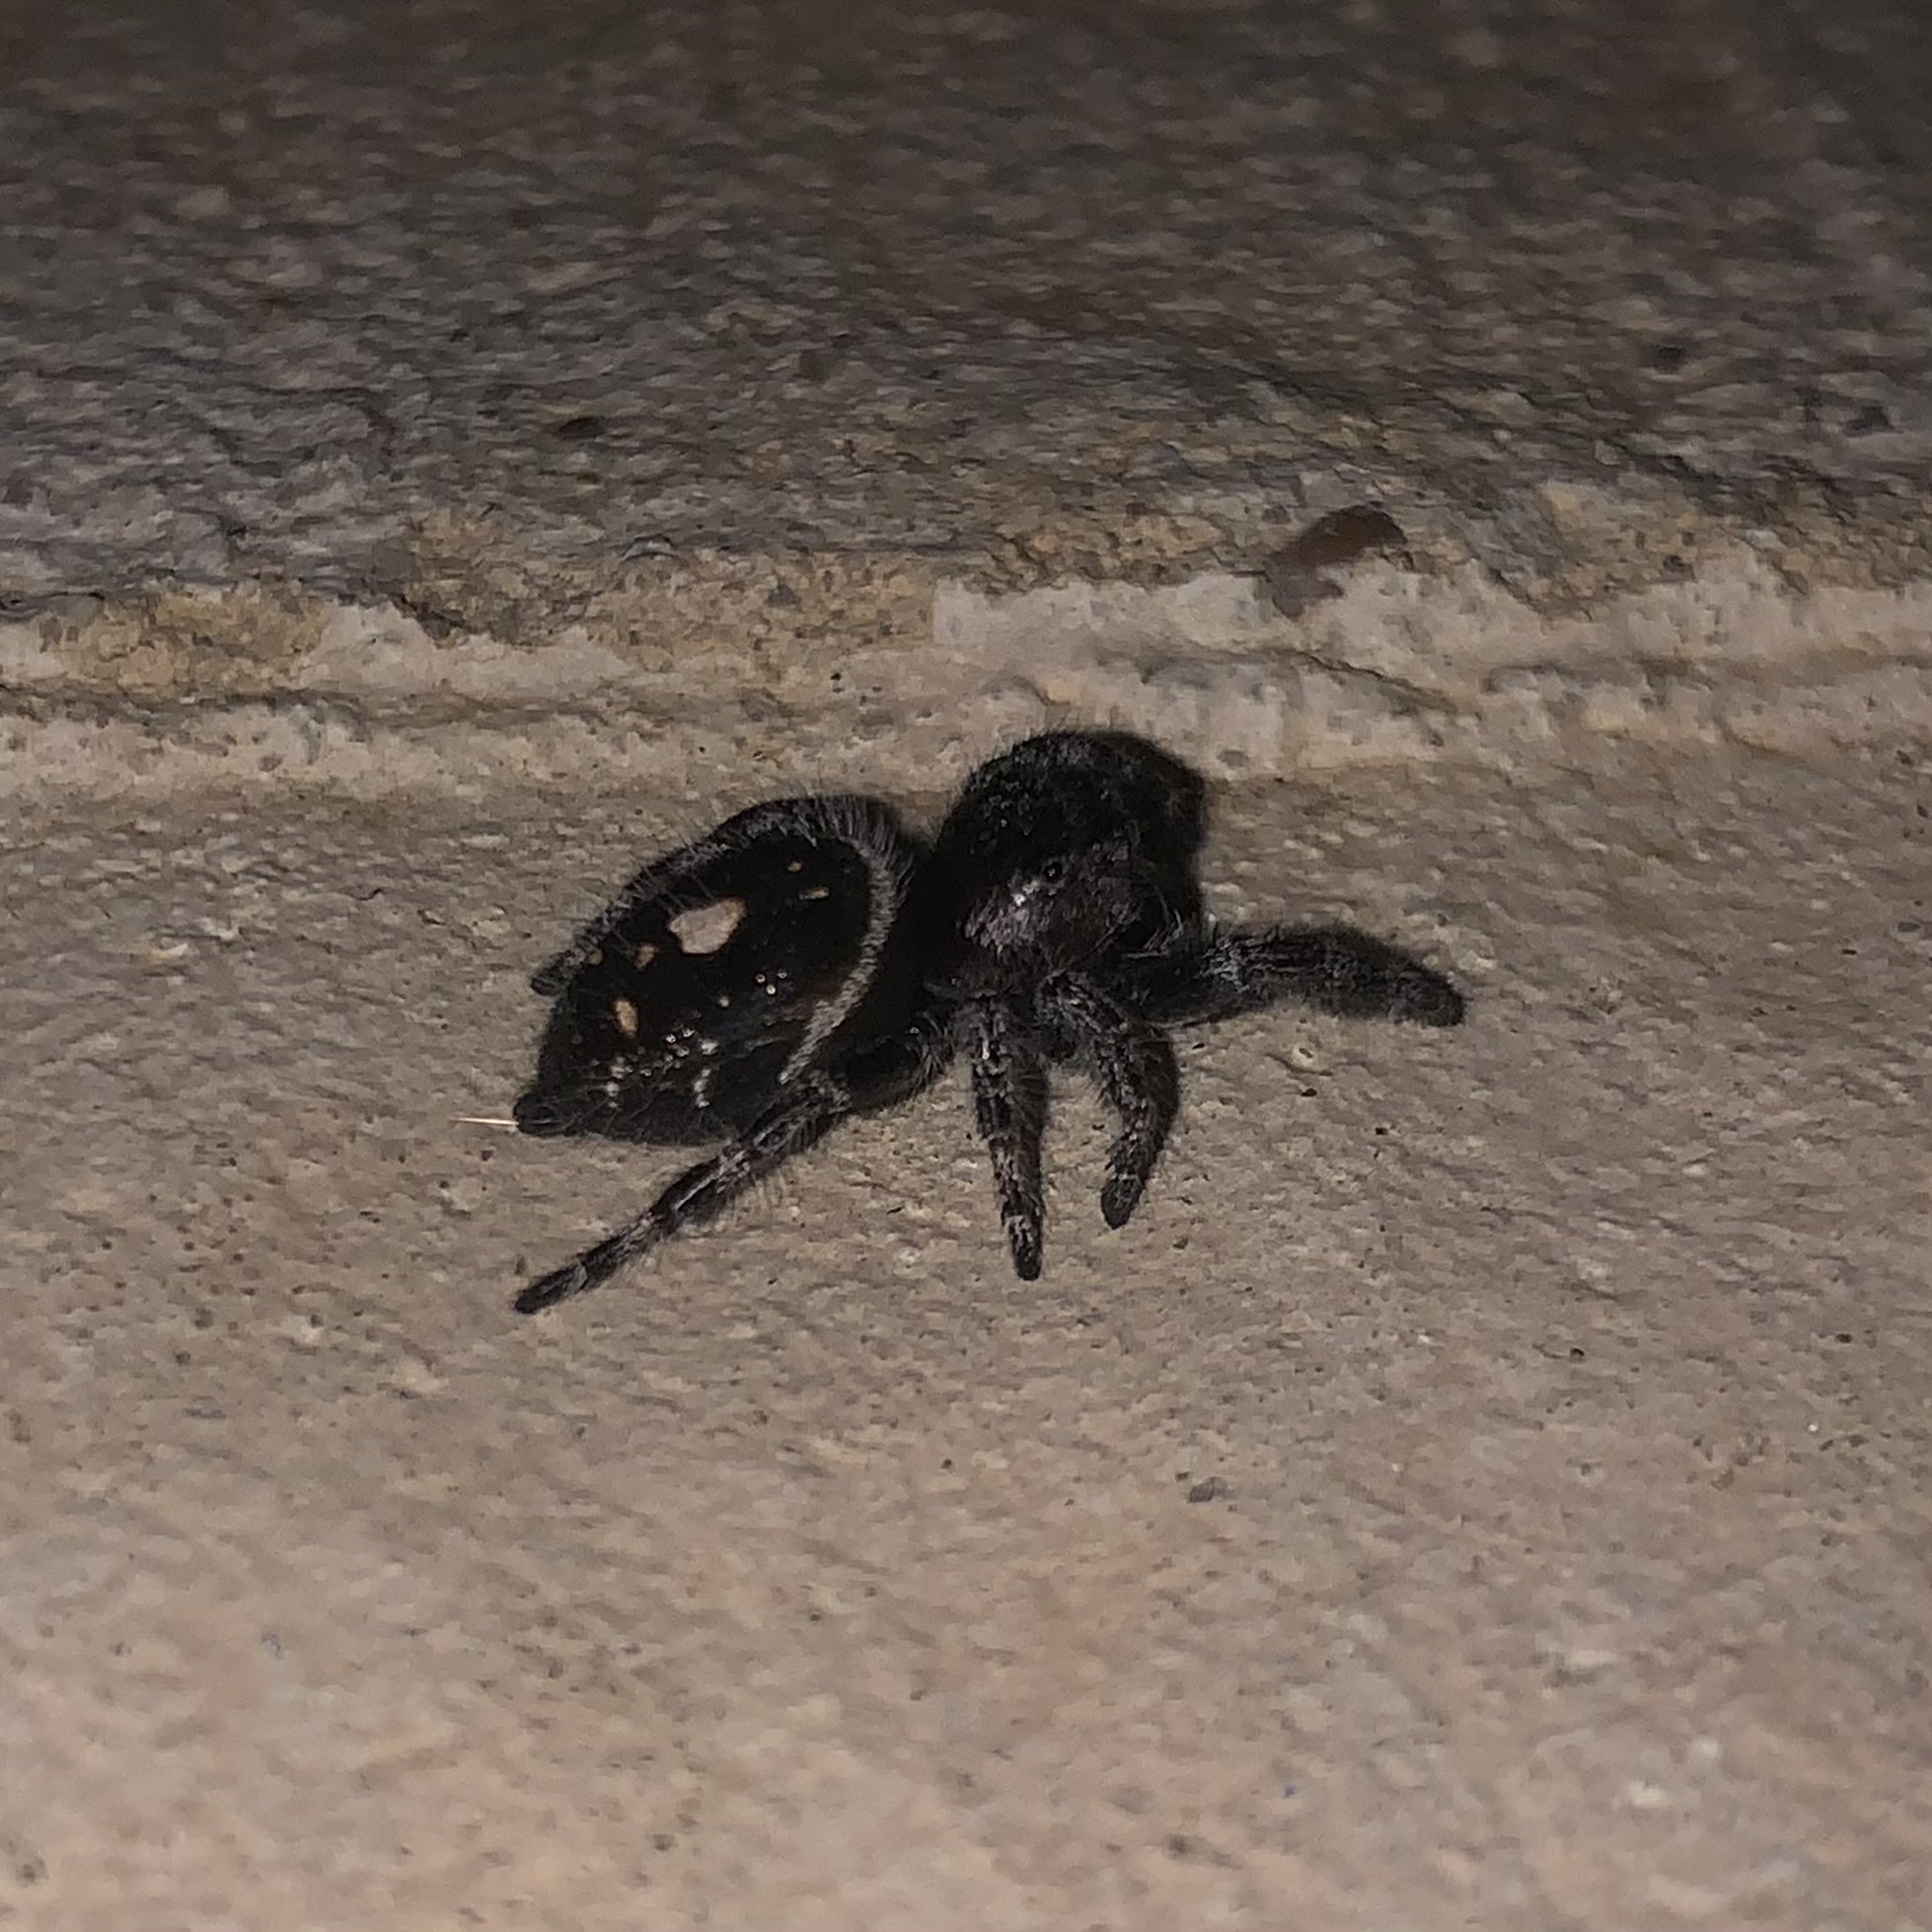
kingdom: Animalia
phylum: Arthropoda
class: Arachnida
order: Araneae
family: Salticidae
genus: Phidippus
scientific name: Phidippus audax
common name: Bold jumper
